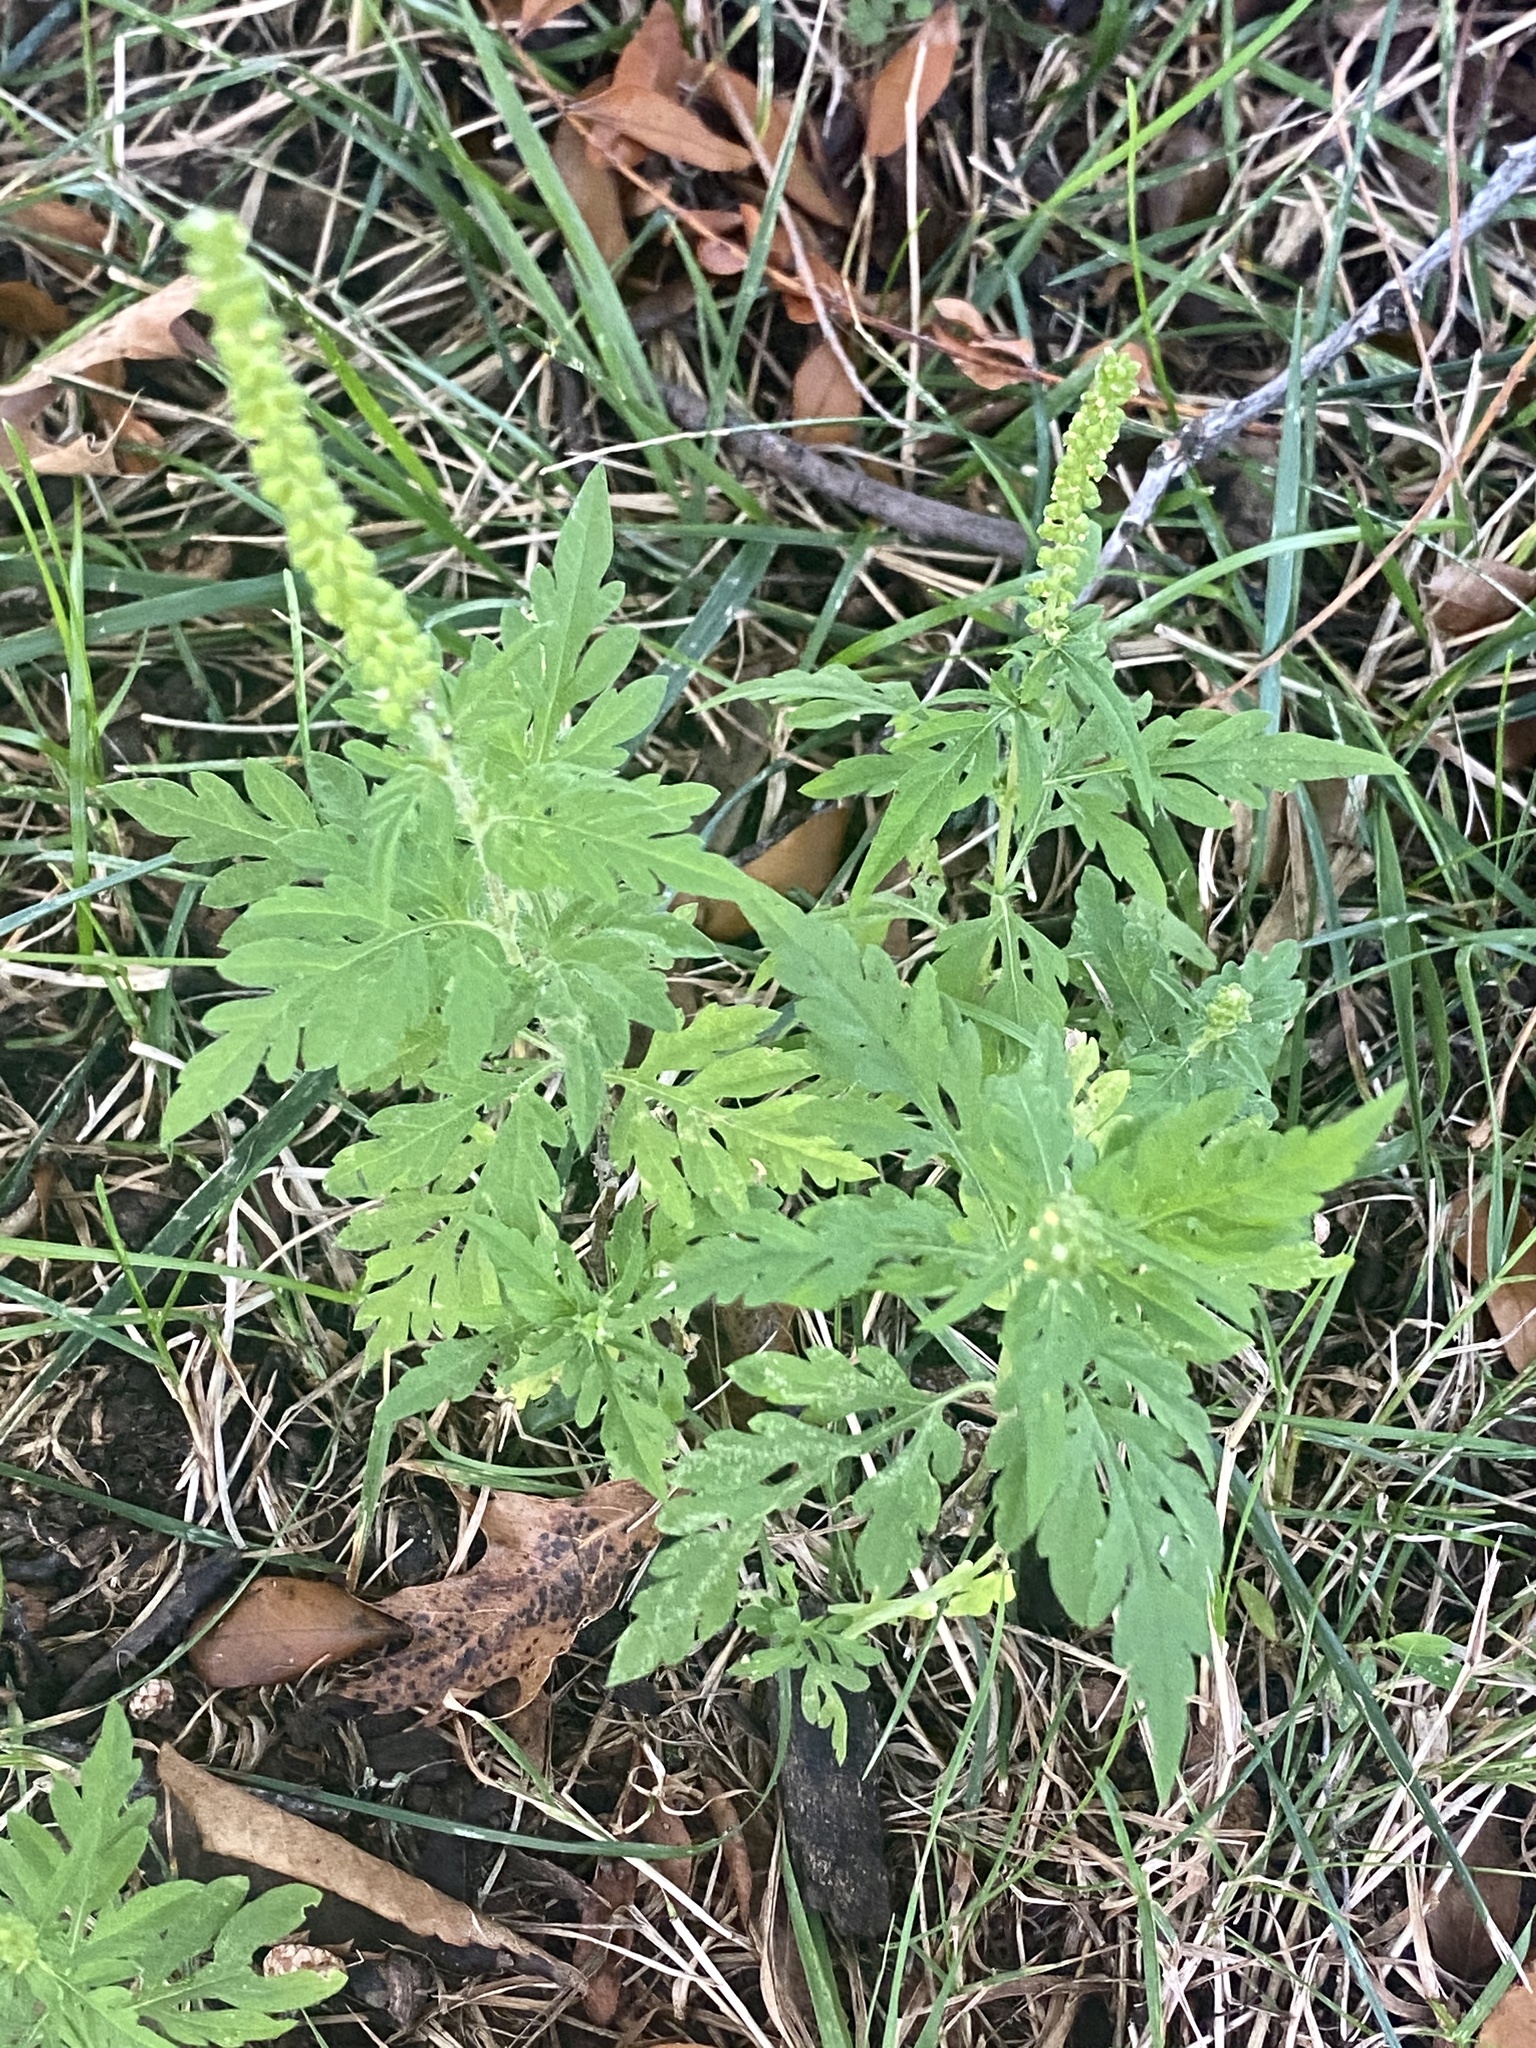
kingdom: Plantae
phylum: Tracheophyta
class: Magnoliopsida
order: Asterales
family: Asteraceae
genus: Ambrosia
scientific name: Ambrosia artemisiifolia
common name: Annual ragweed
